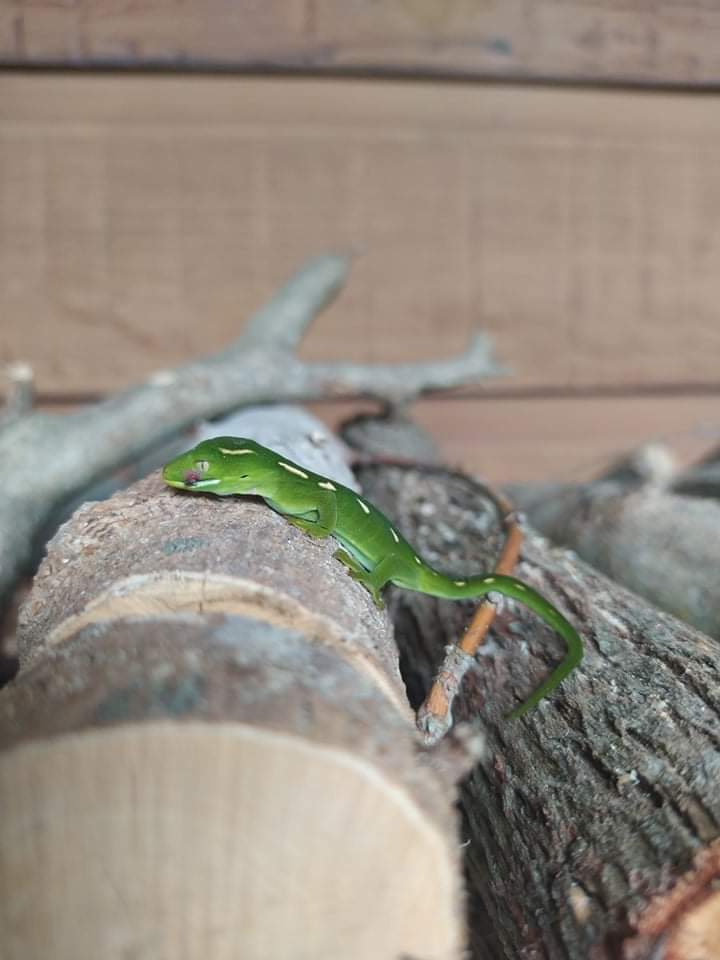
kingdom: Animalia
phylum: Chordata
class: Squamata
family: Diplodactylidae
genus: Naultinus
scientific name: Naultinus punctatus
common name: Wellington green gecko
